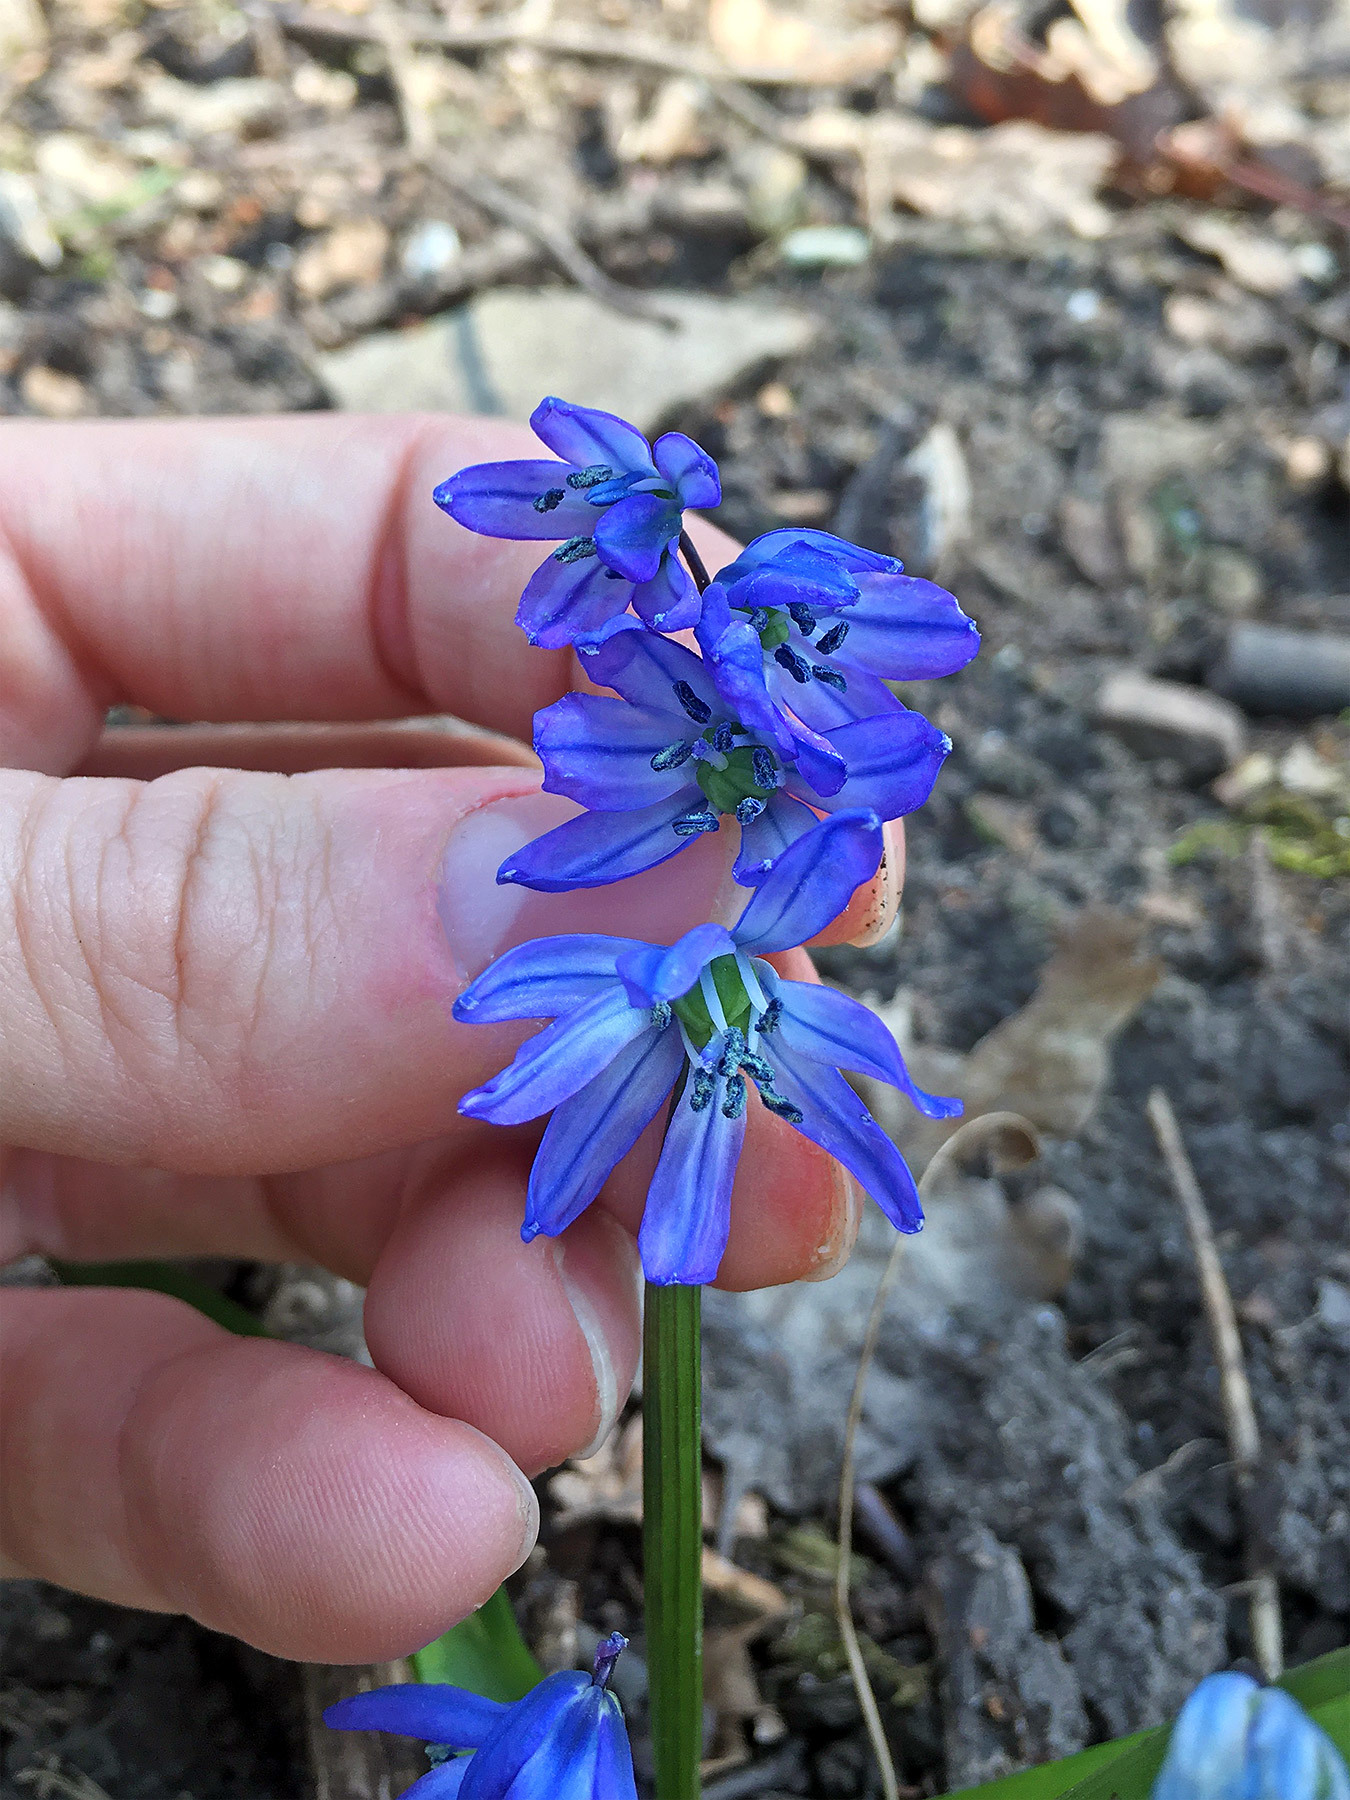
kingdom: Plantae
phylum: Tracheophyta
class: Liliopsida
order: Asparagales
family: Asparagaceae
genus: Scilla
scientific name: Scilla siberica
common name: Siberian squill
